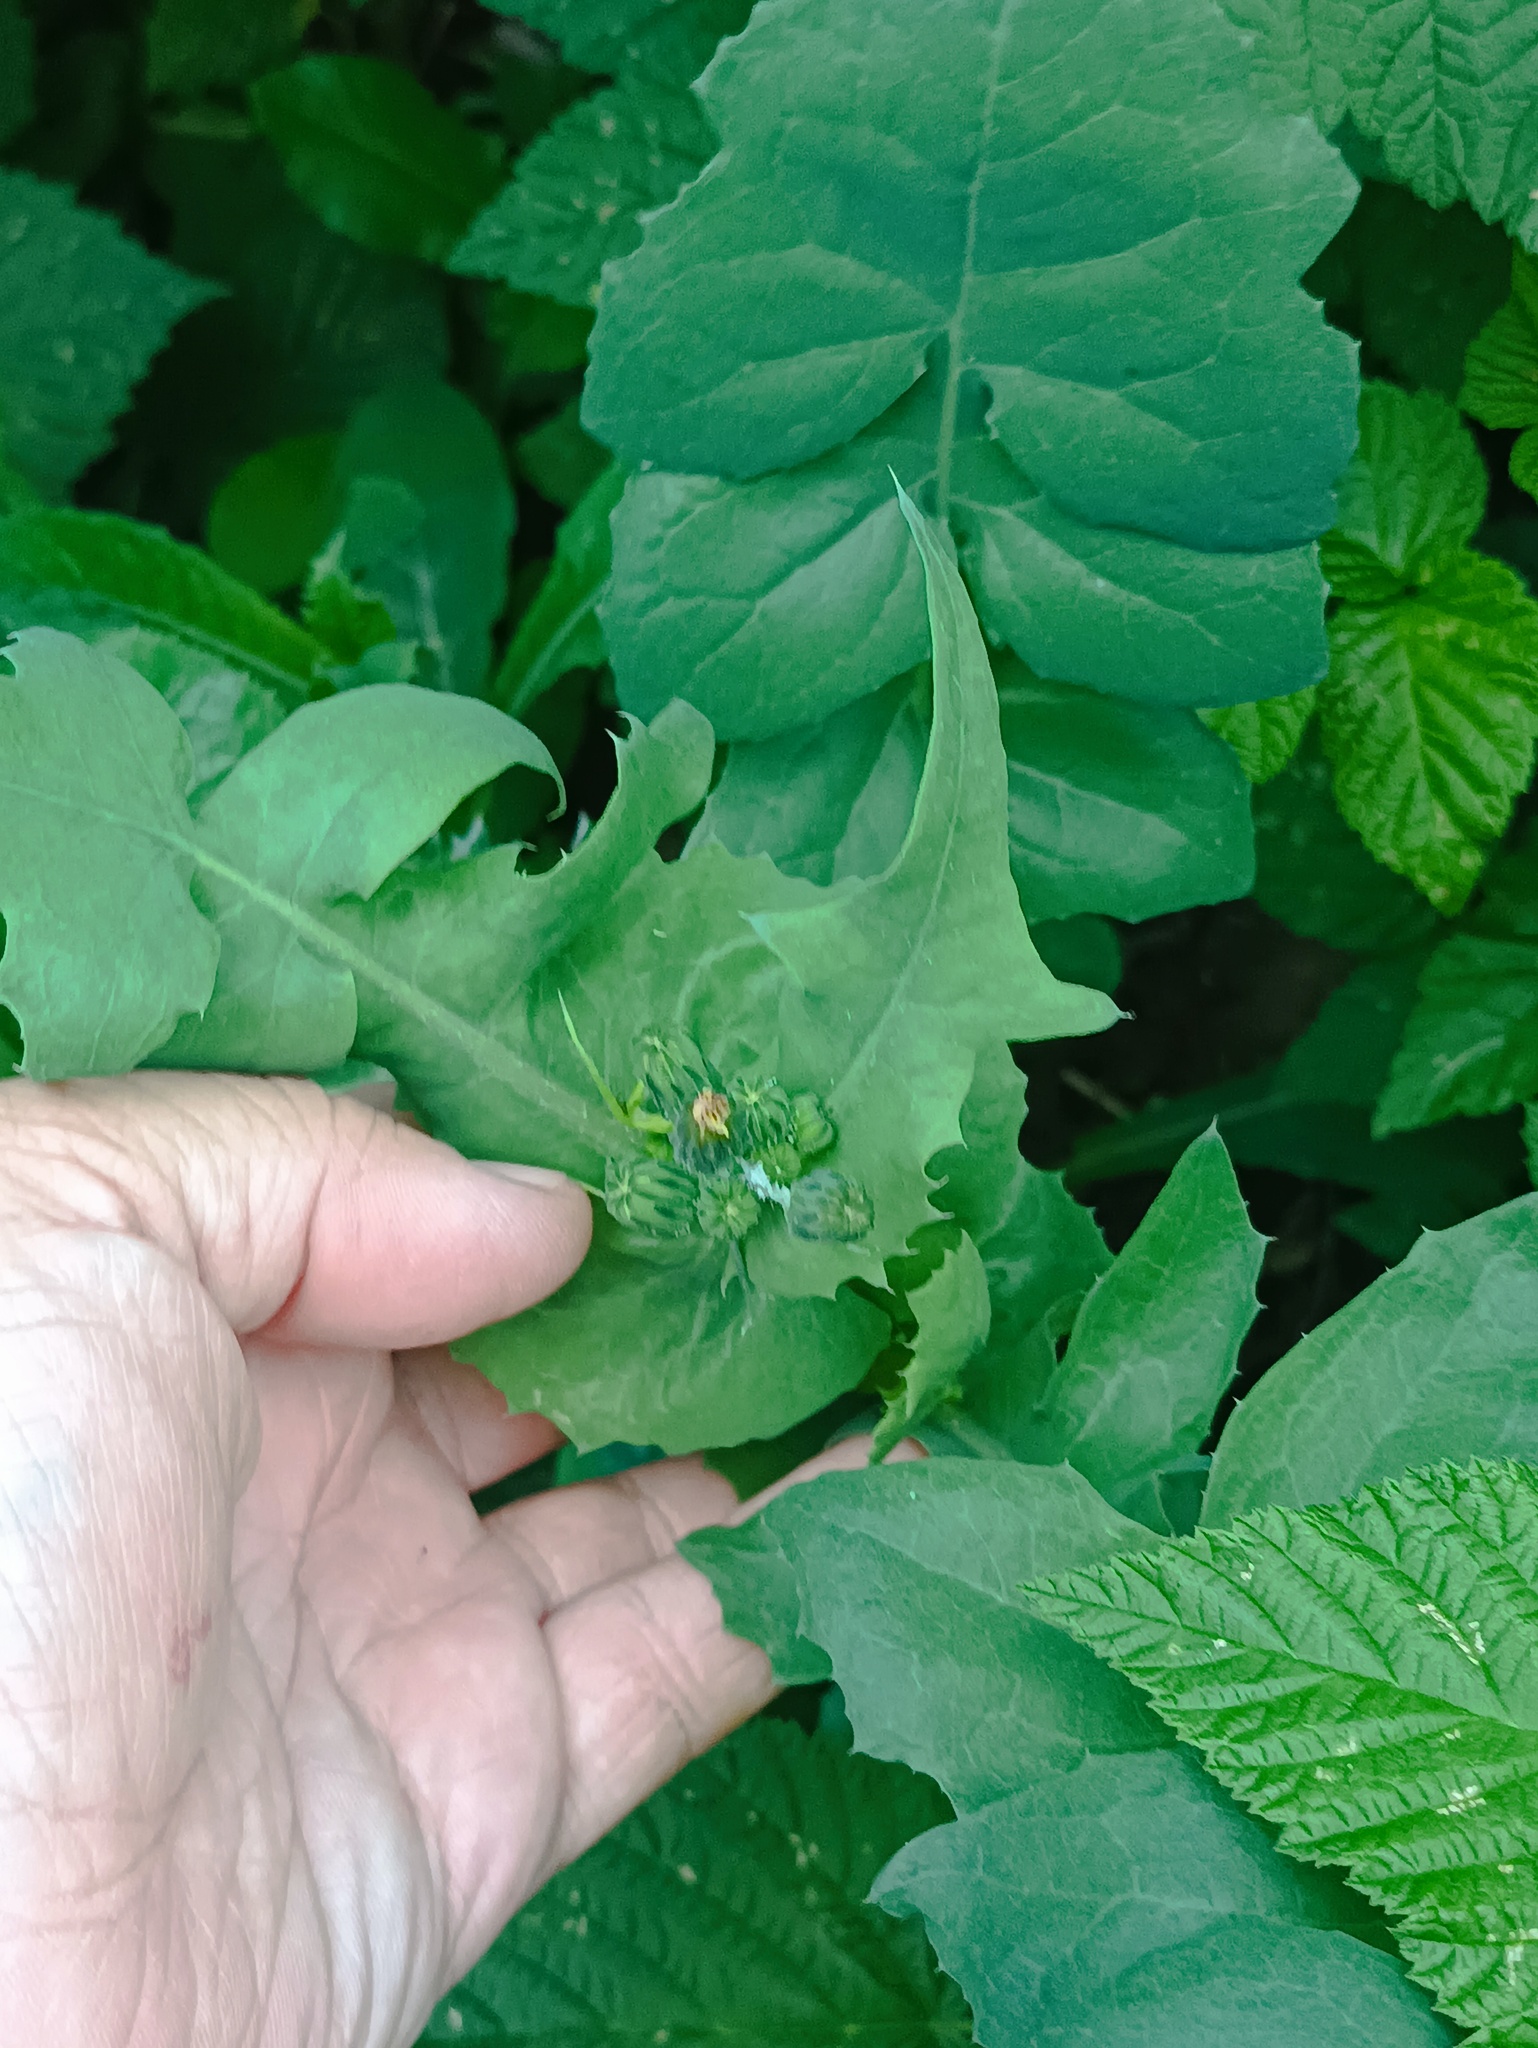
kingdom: Plantae
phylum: Tracheophyta
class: Magnoliopsida
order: Asterales
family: Asteraceae
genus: Sonchus
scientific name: Sonchus oleraceus
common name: Common sowthistle
